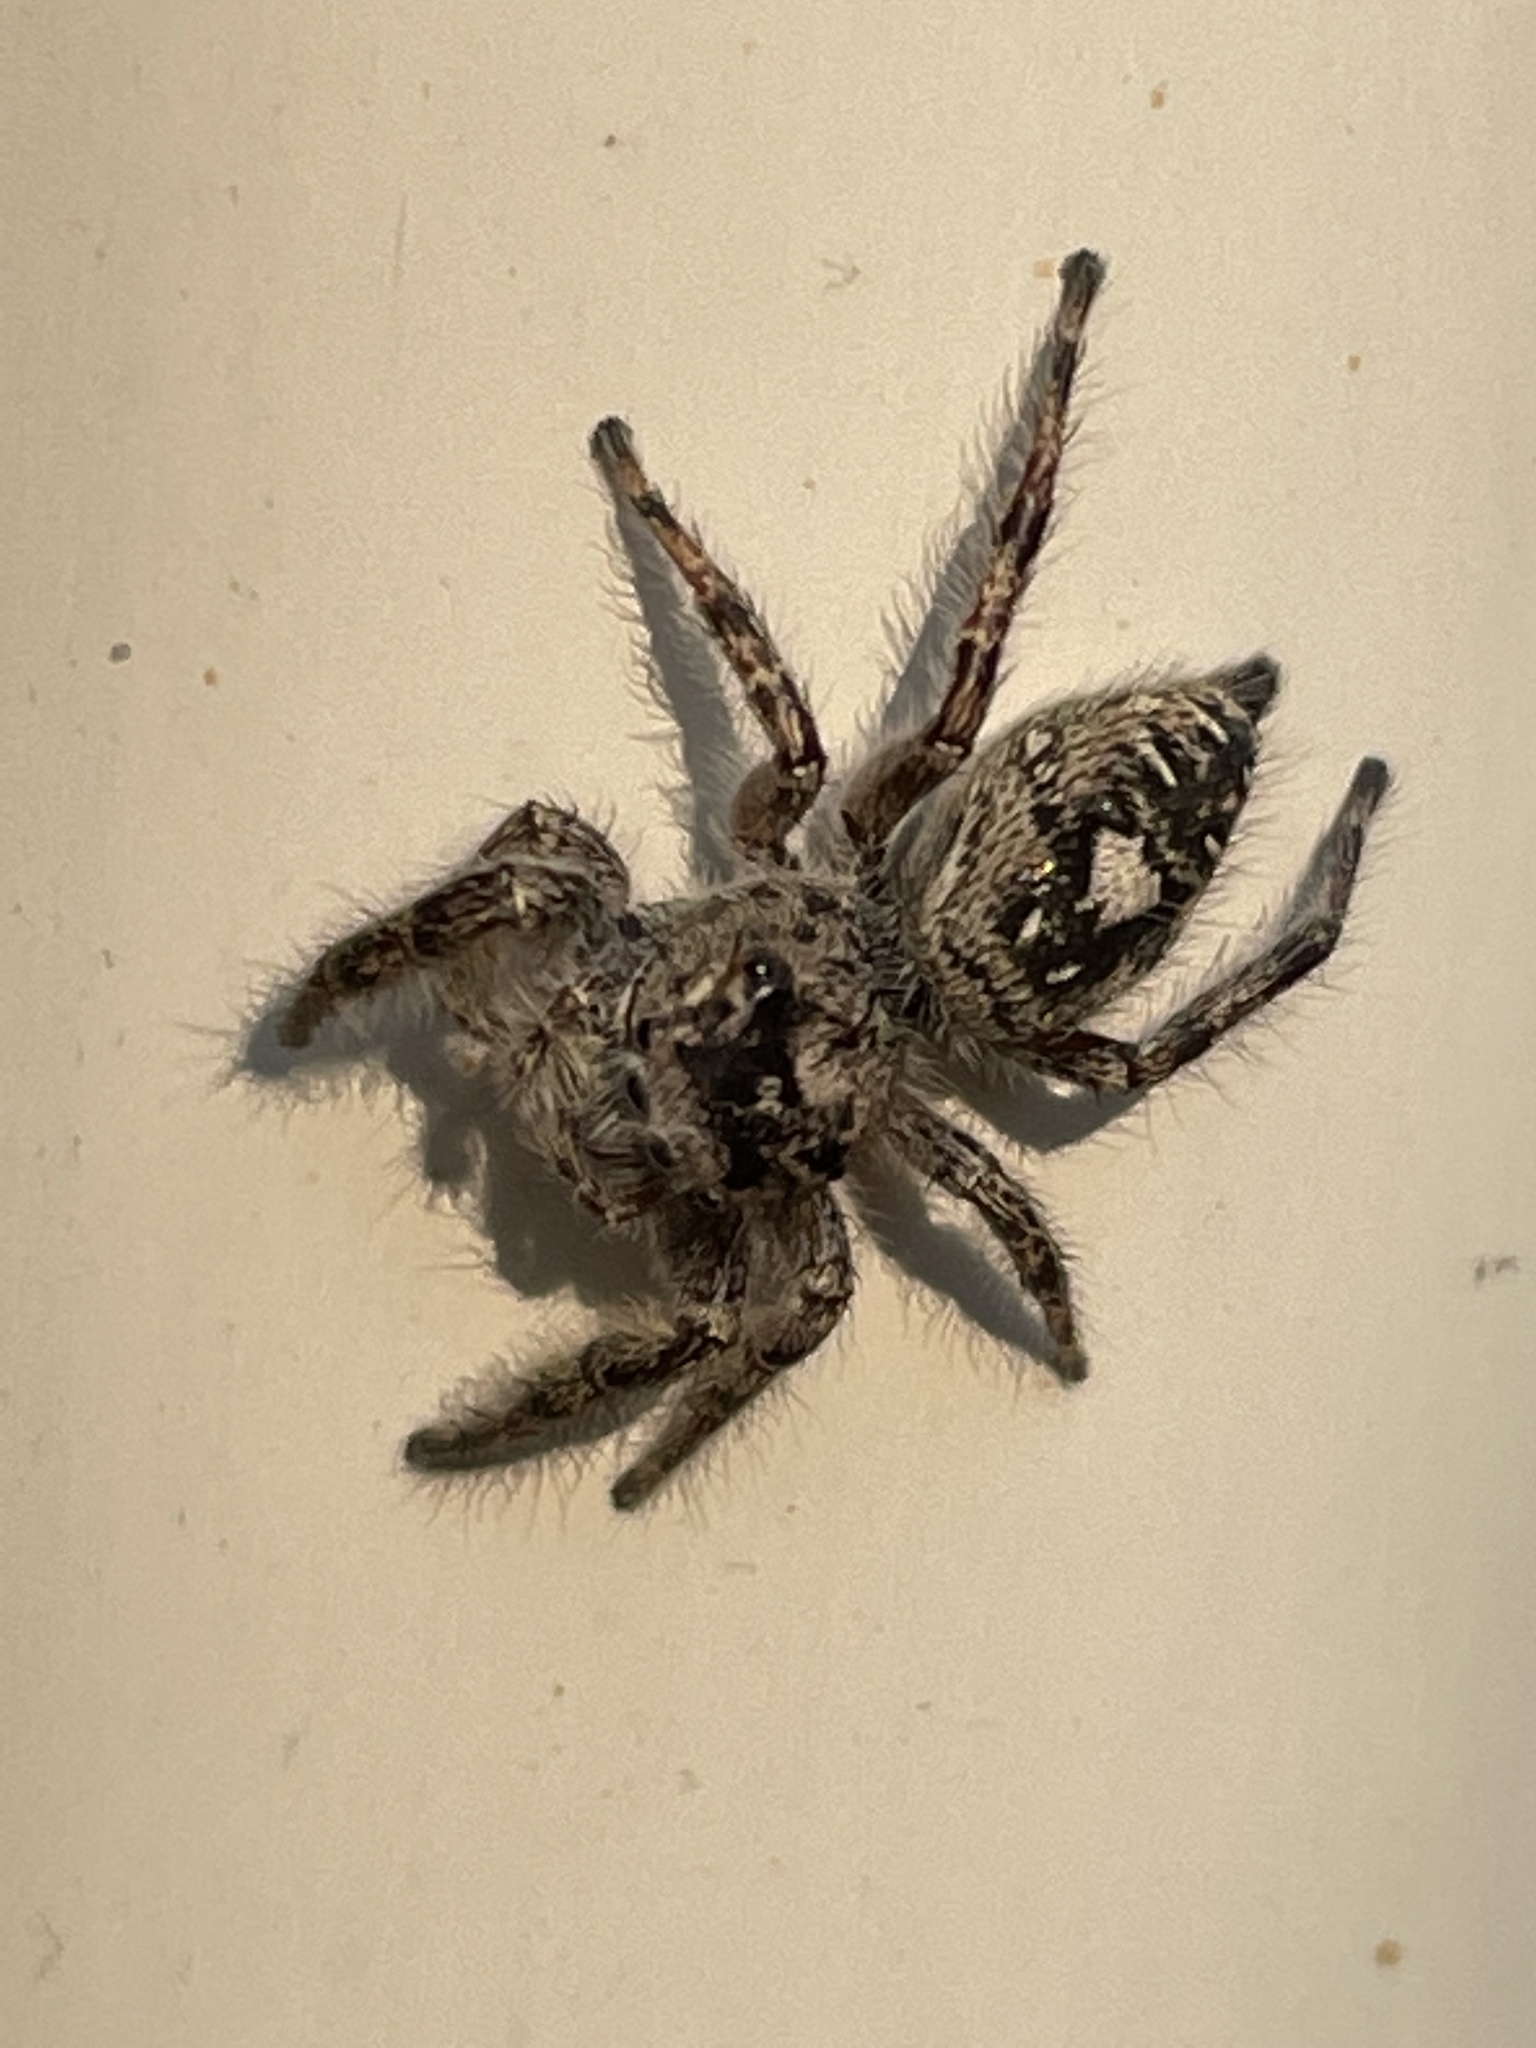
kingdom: Animalia
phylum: Arthropoda
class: Arachnida
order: Araneae
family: Salticidae
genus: Phidippus
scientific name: Phidippus putnami
